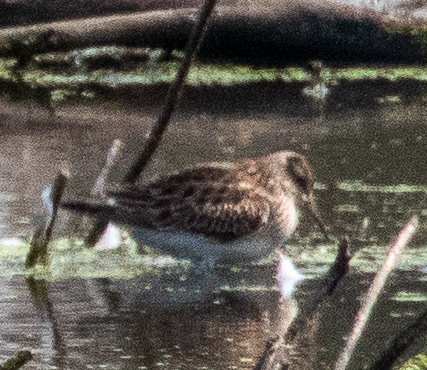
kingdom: Animalia
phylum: Chordata
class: Aves
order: Charadriiformes
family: Scolopacidae
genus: Calidris
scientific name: Calidris melanotos
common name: Pectoral sandpiper
